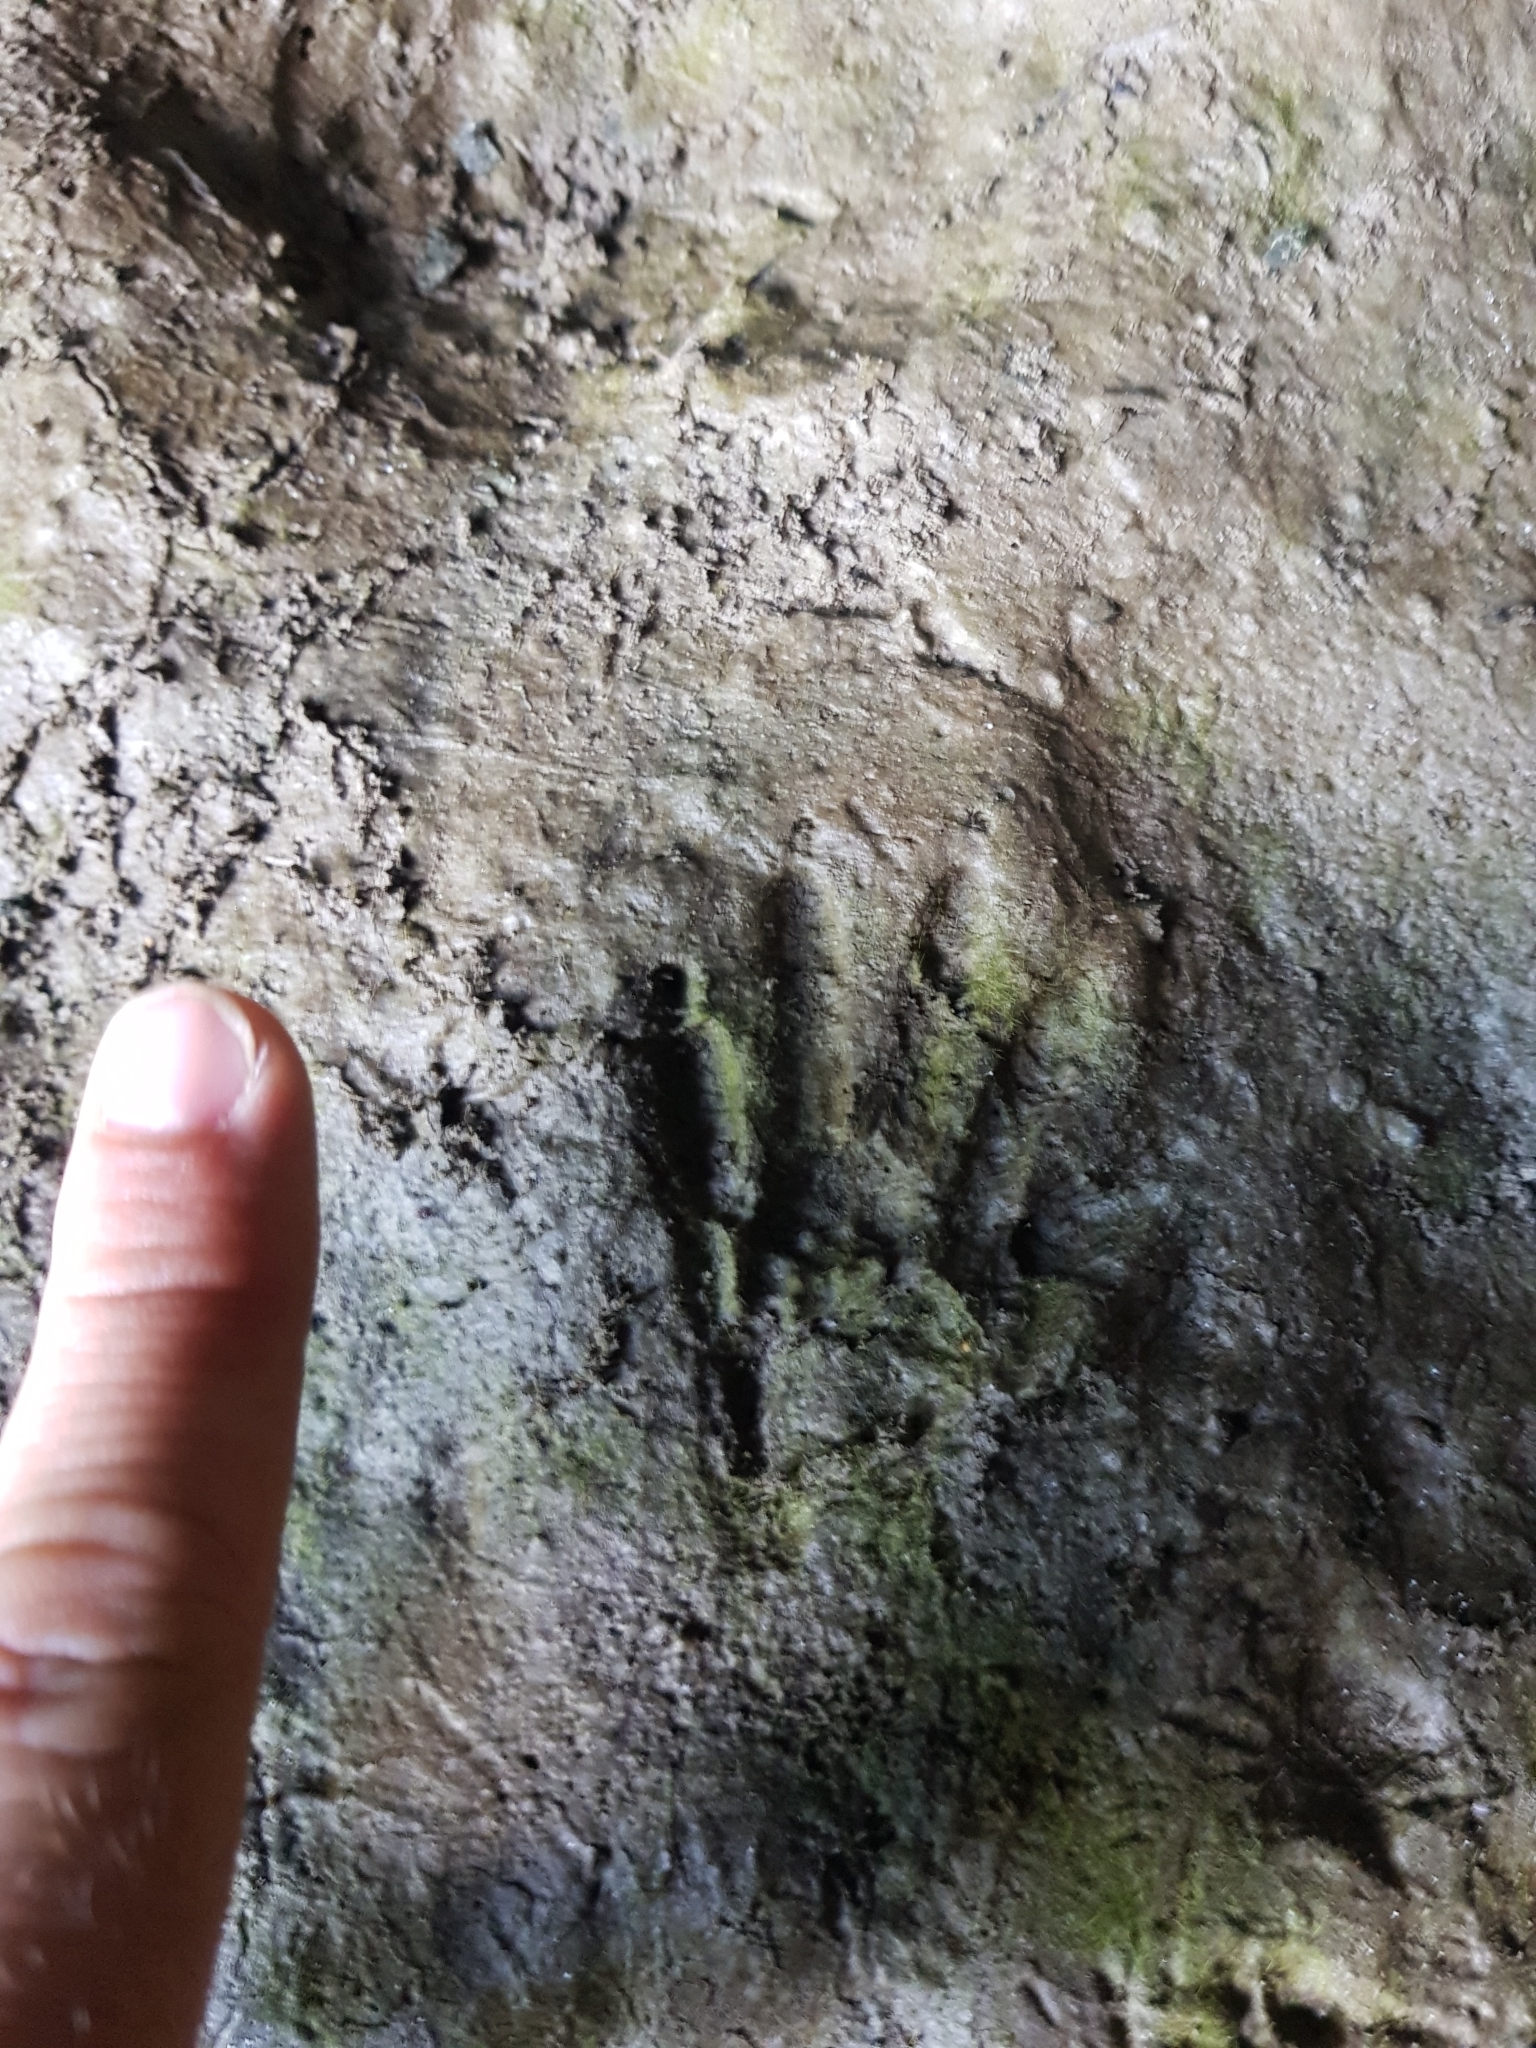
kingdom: Animalia
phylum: Chordata
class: Mammalia
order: Carnivora
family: Procyonidae
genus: Procyon
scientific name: Procyon lotor
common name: Raccoon
